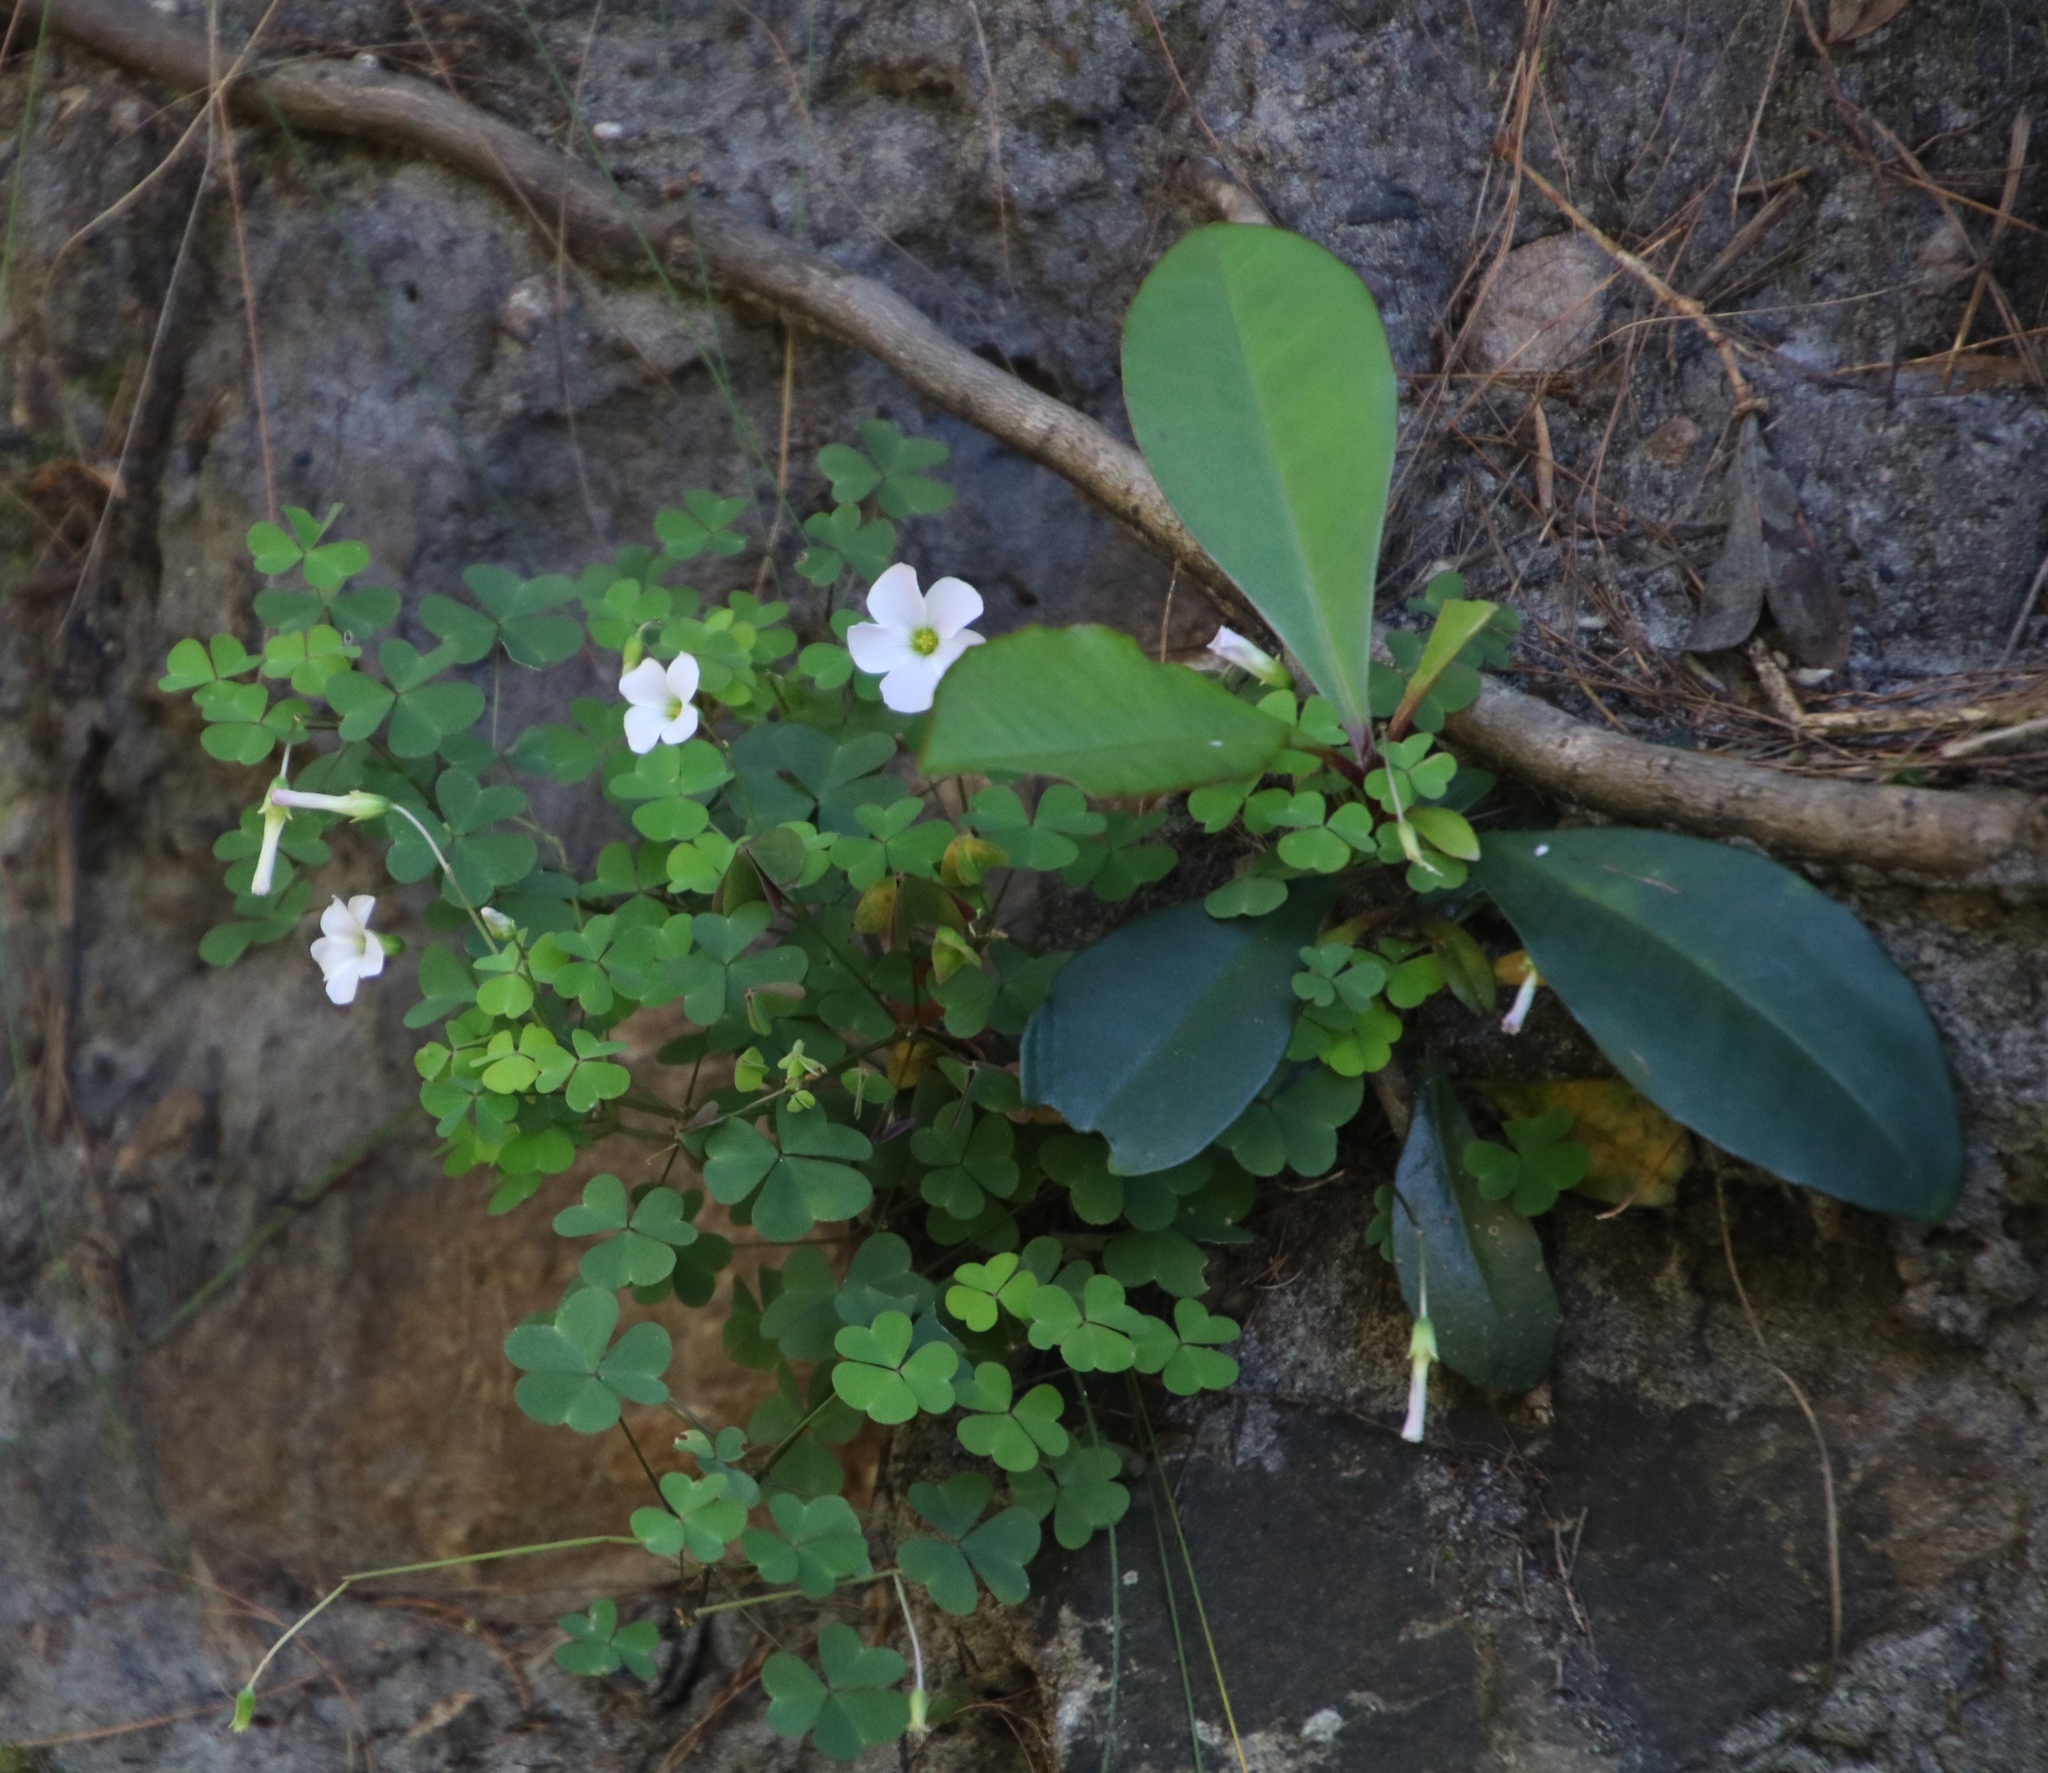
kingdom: Plantae
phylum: Tracheophyta
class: Magnoliopsida
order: Oxalidales
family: Oxalidaceae
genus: Oxalis
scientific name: Oxalis incarnata
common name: Pale pink-sorrel
